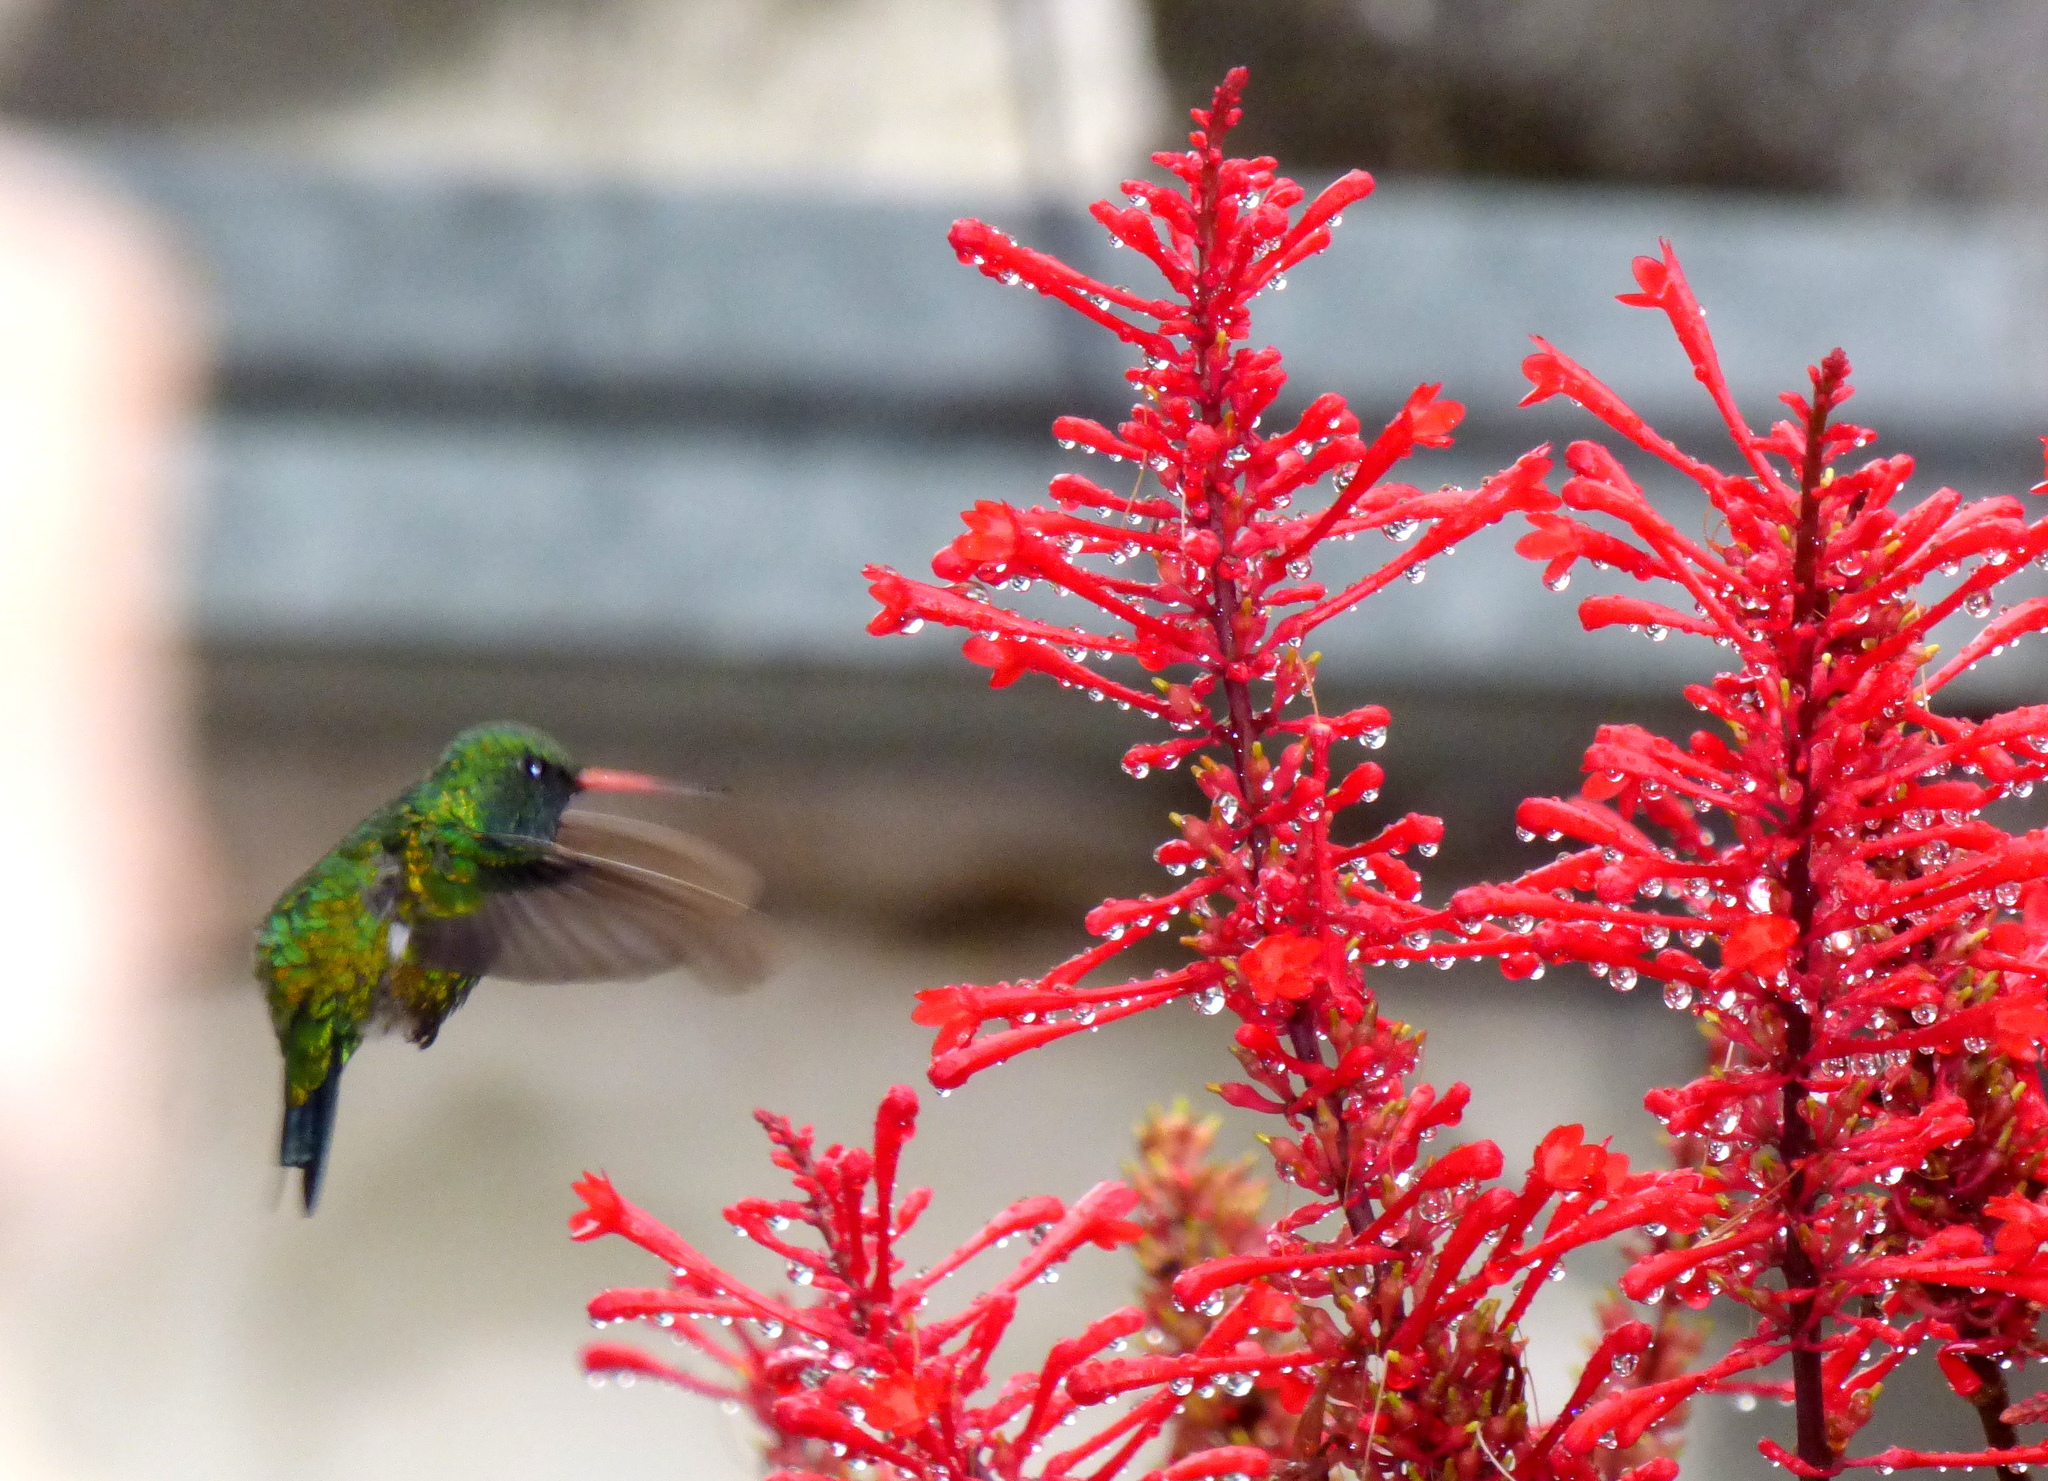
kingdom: Animalia
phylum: Chordata
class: Aves
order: Apodiformes
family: Trochilidae
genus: Chlorostilbon
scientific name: Chlorostilbon lucidus
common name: Glittering-bellied emerald
